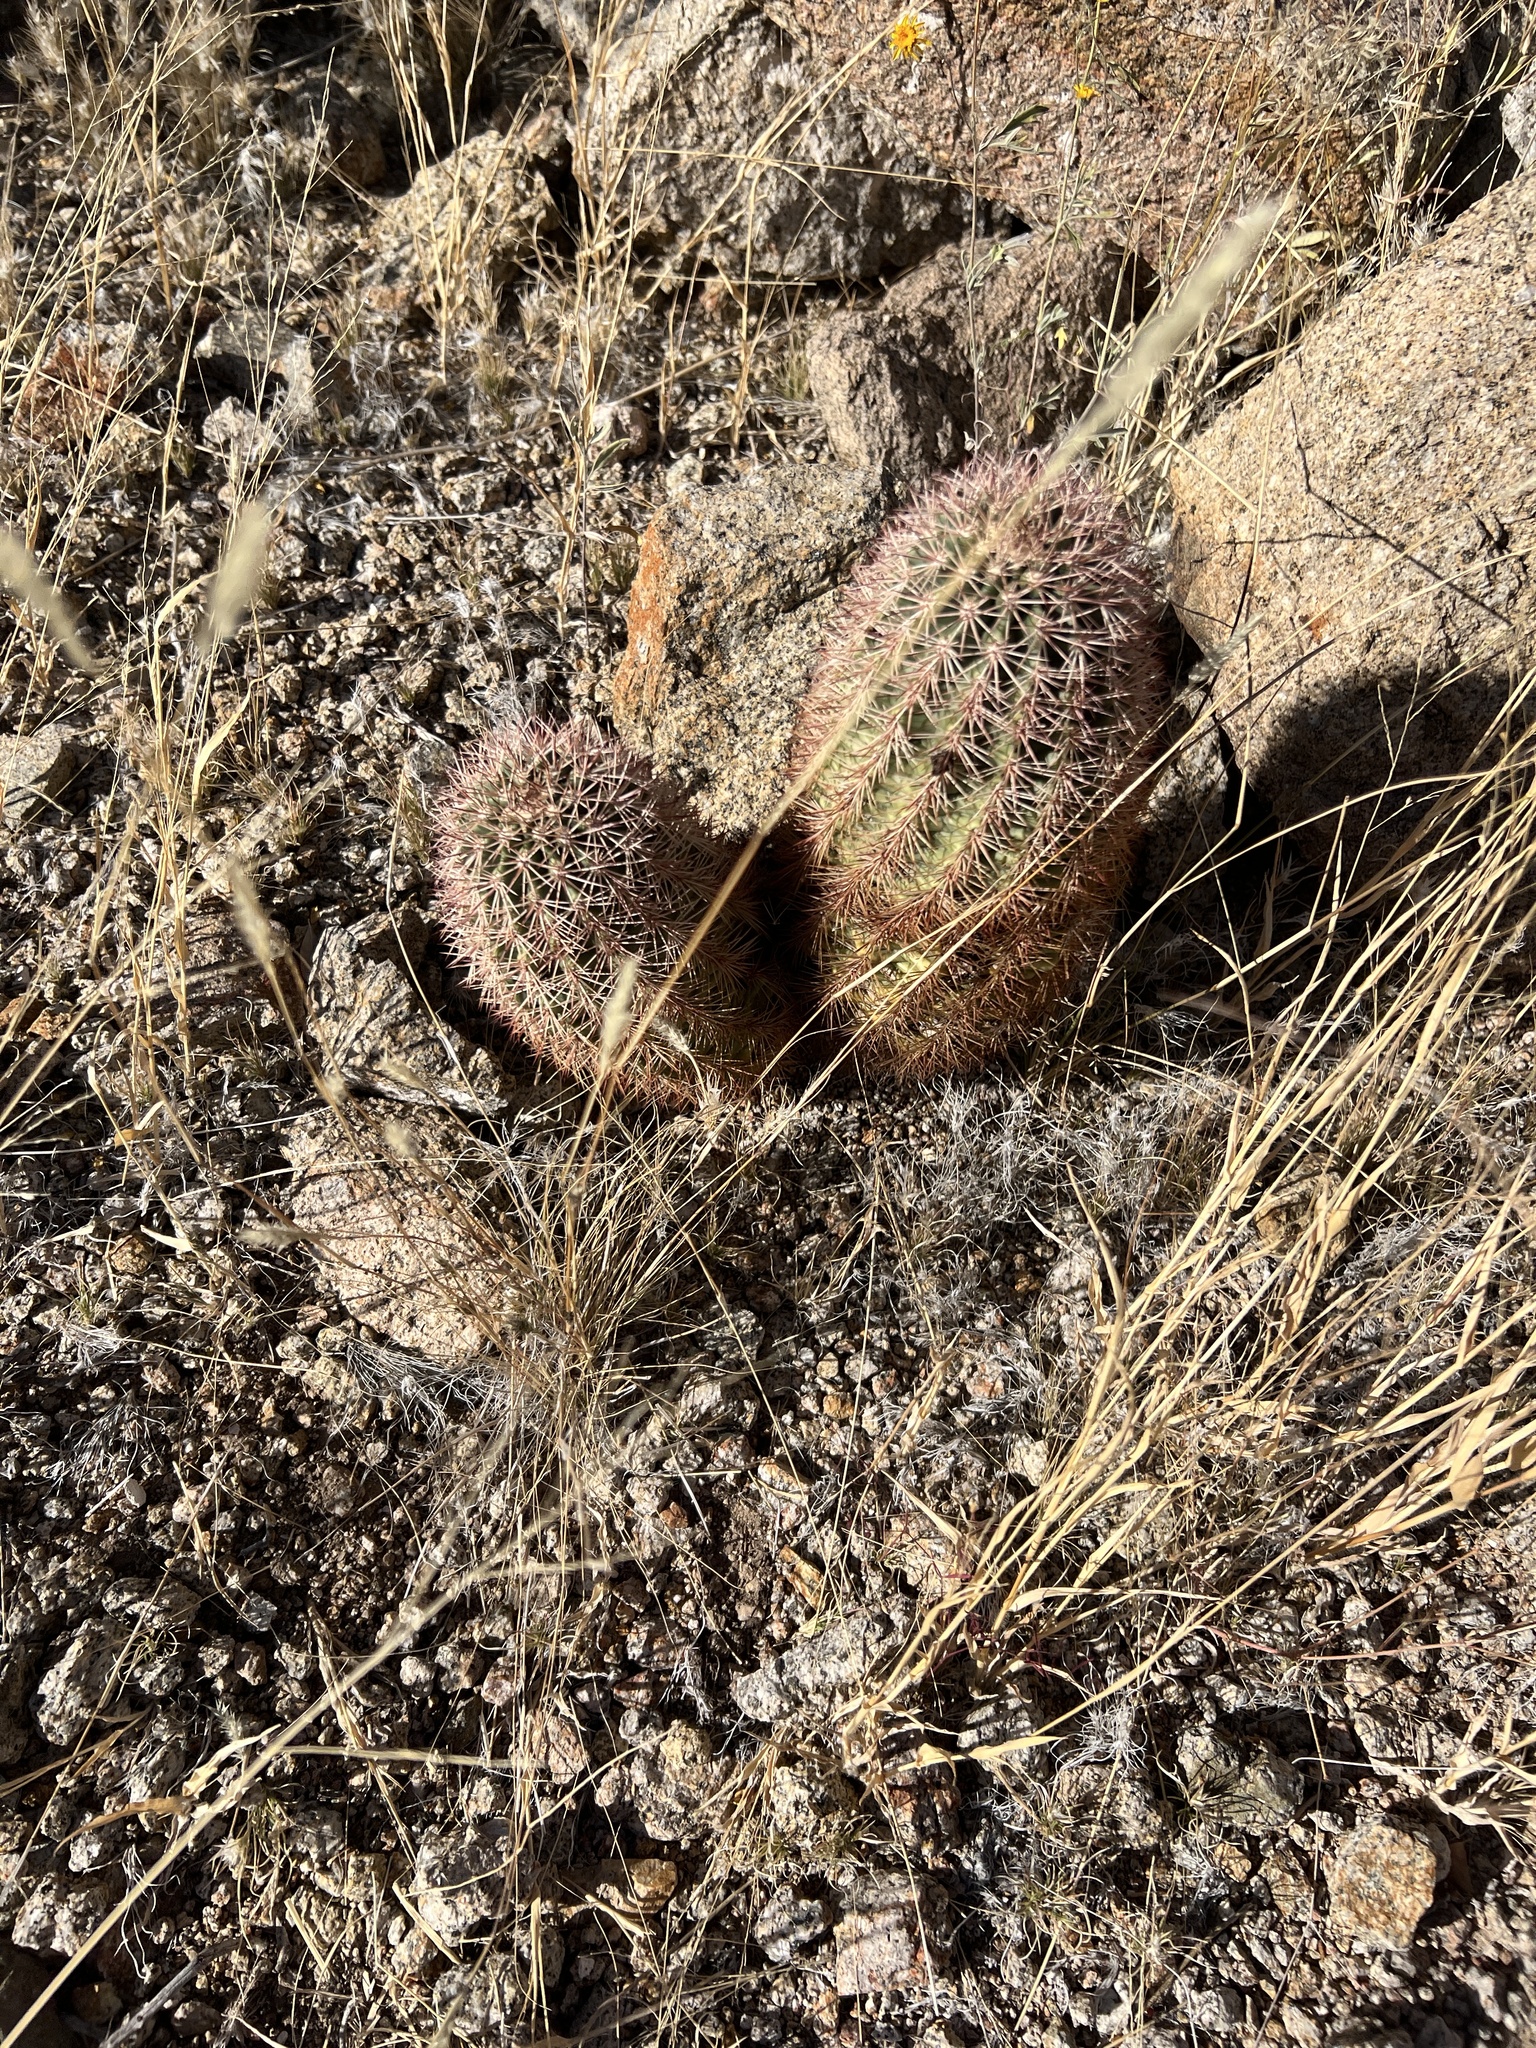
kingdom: Plantae
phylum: Tracheophyta
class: Magnoliopsida
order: Caryophyllales
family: Cactaceae
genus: Echinocereus
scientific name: Echinocereus dasyacanthus
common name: Spiny hedgehog cactus
